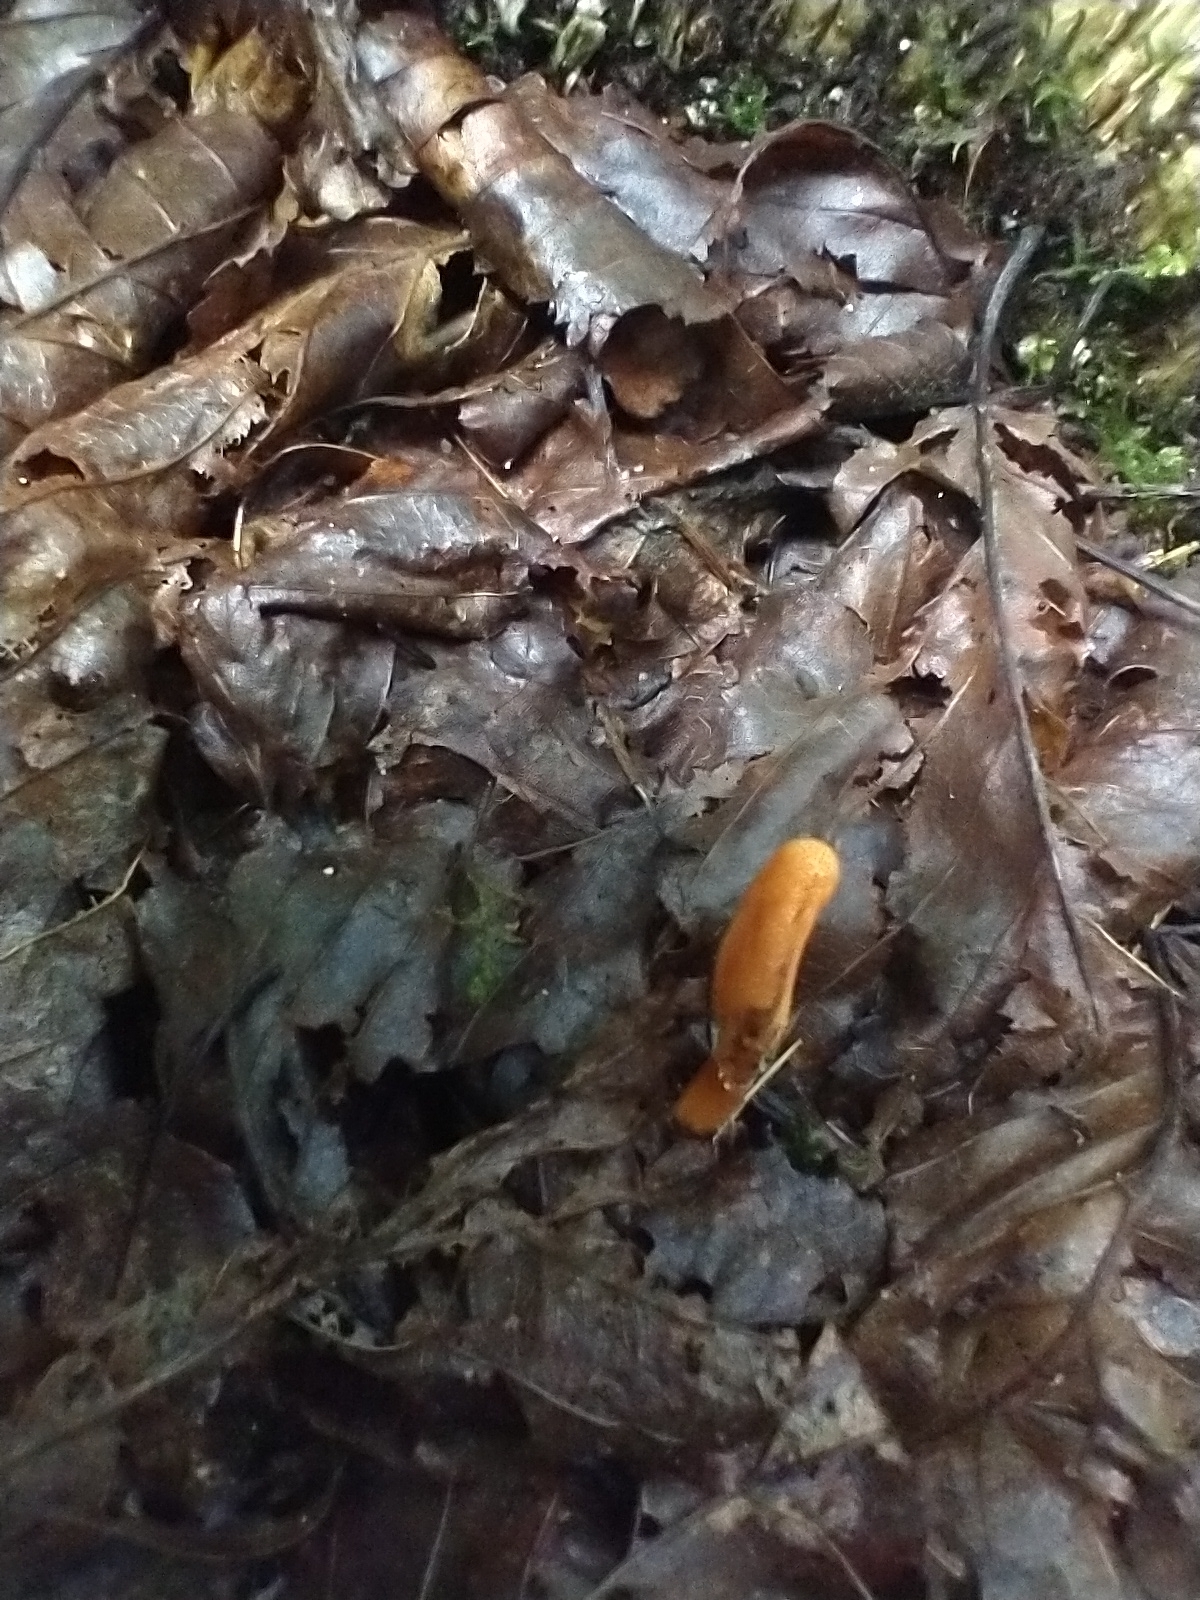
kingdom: Fungi
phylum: Ascomycota
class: Sordariomycetes
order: Hypocreales
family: Cordycipitaceae
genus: Cordyceps
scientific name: Cordyceps militaris
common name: Scarlet caterpillar fungus
